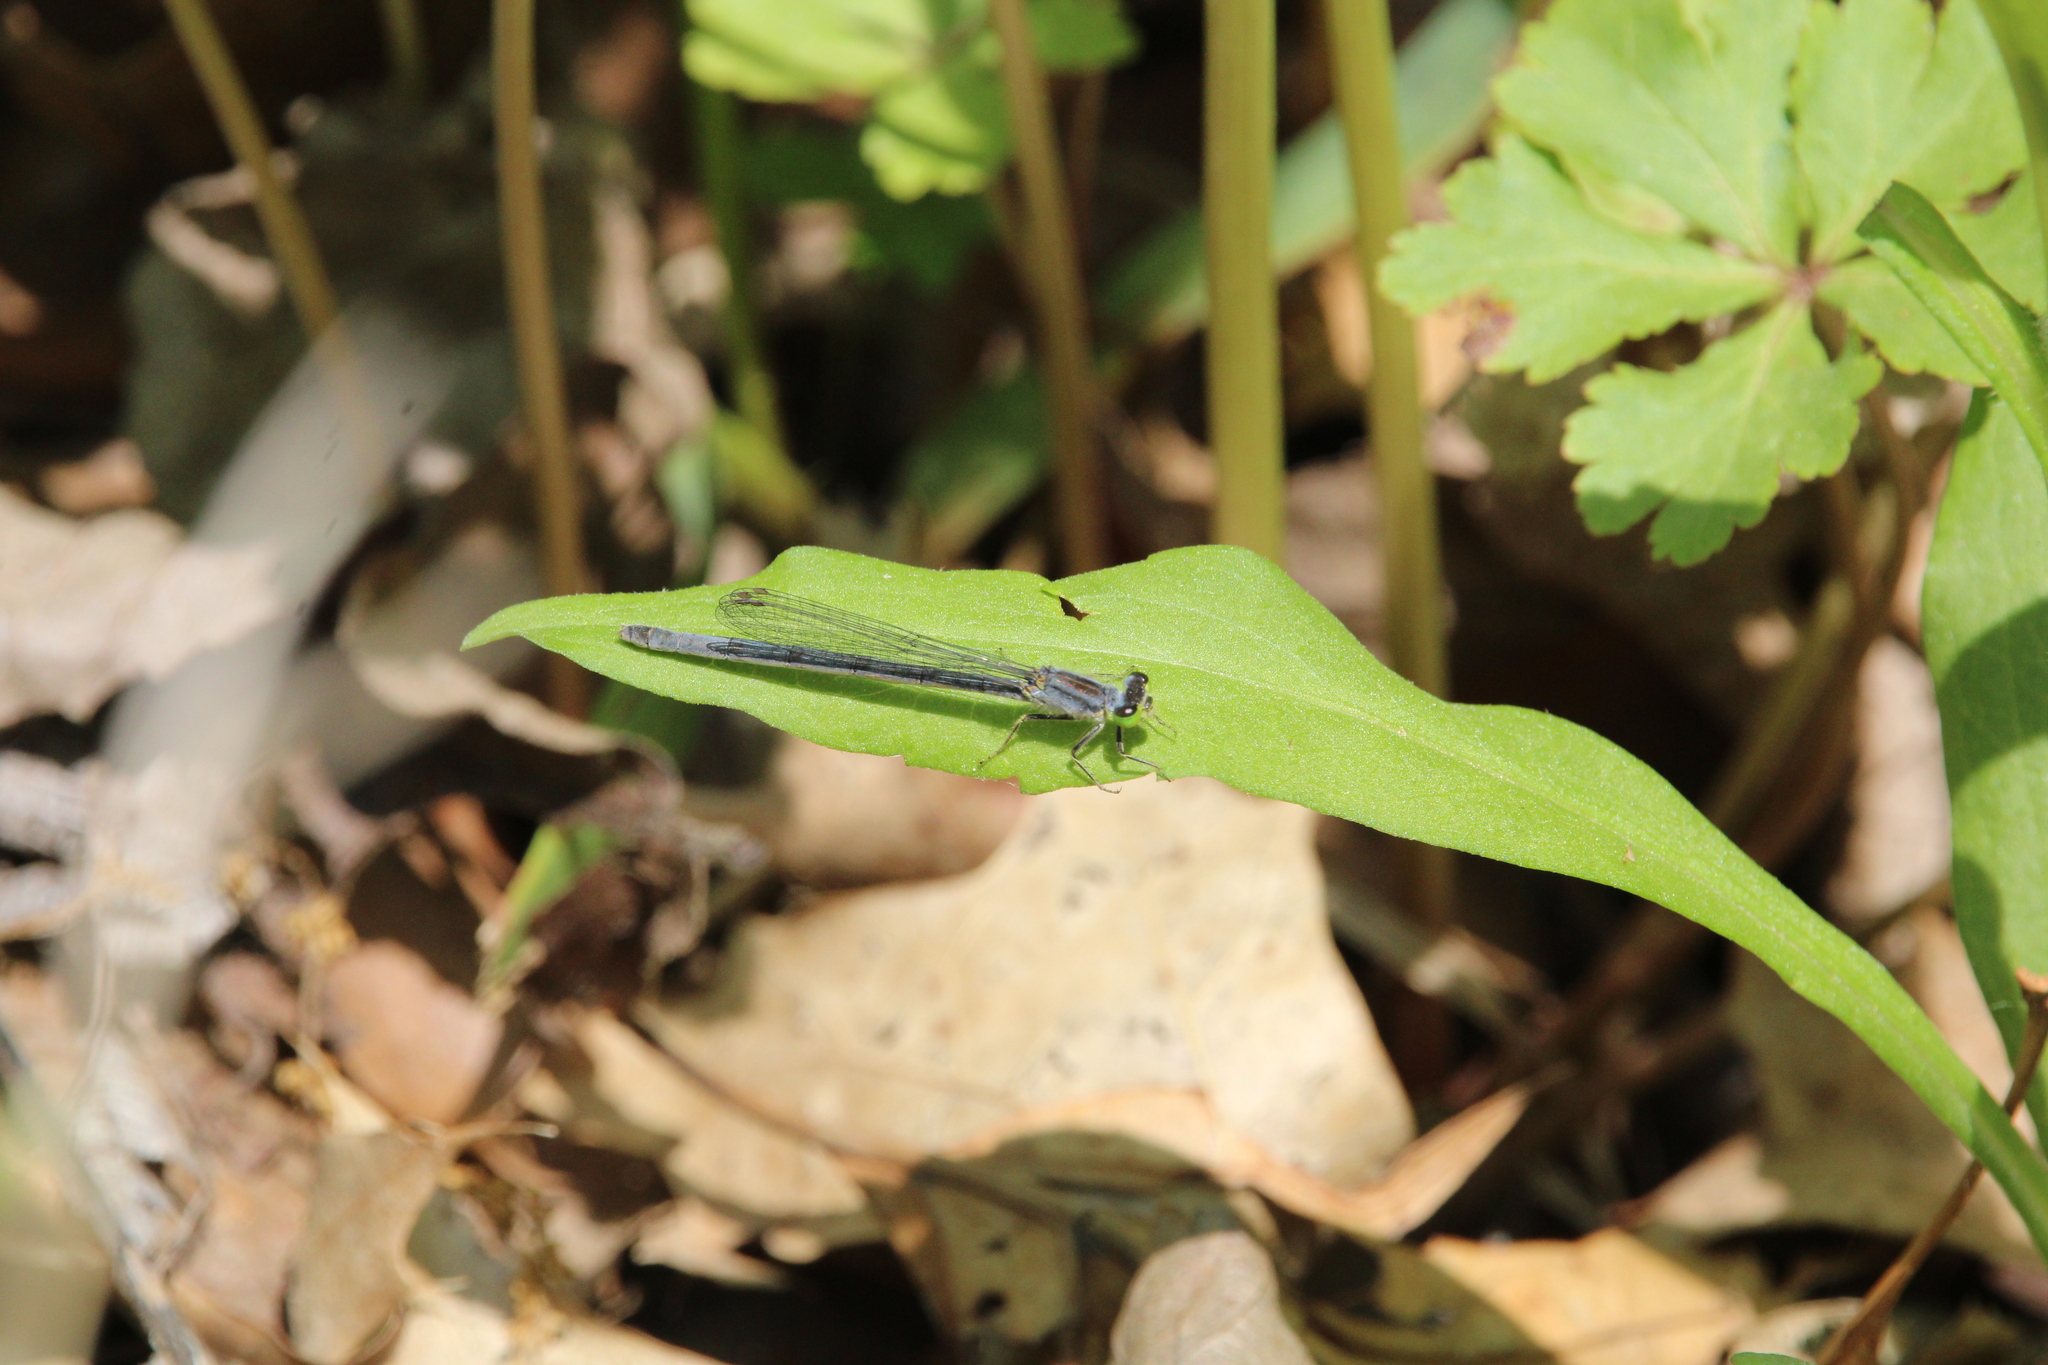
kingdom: Animalia
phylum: Arthropoda
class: Insecta
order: Odonata
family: Coenagrionidae
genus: Ischnura
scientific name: Ischnura verticalis
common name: Eastern forktail
